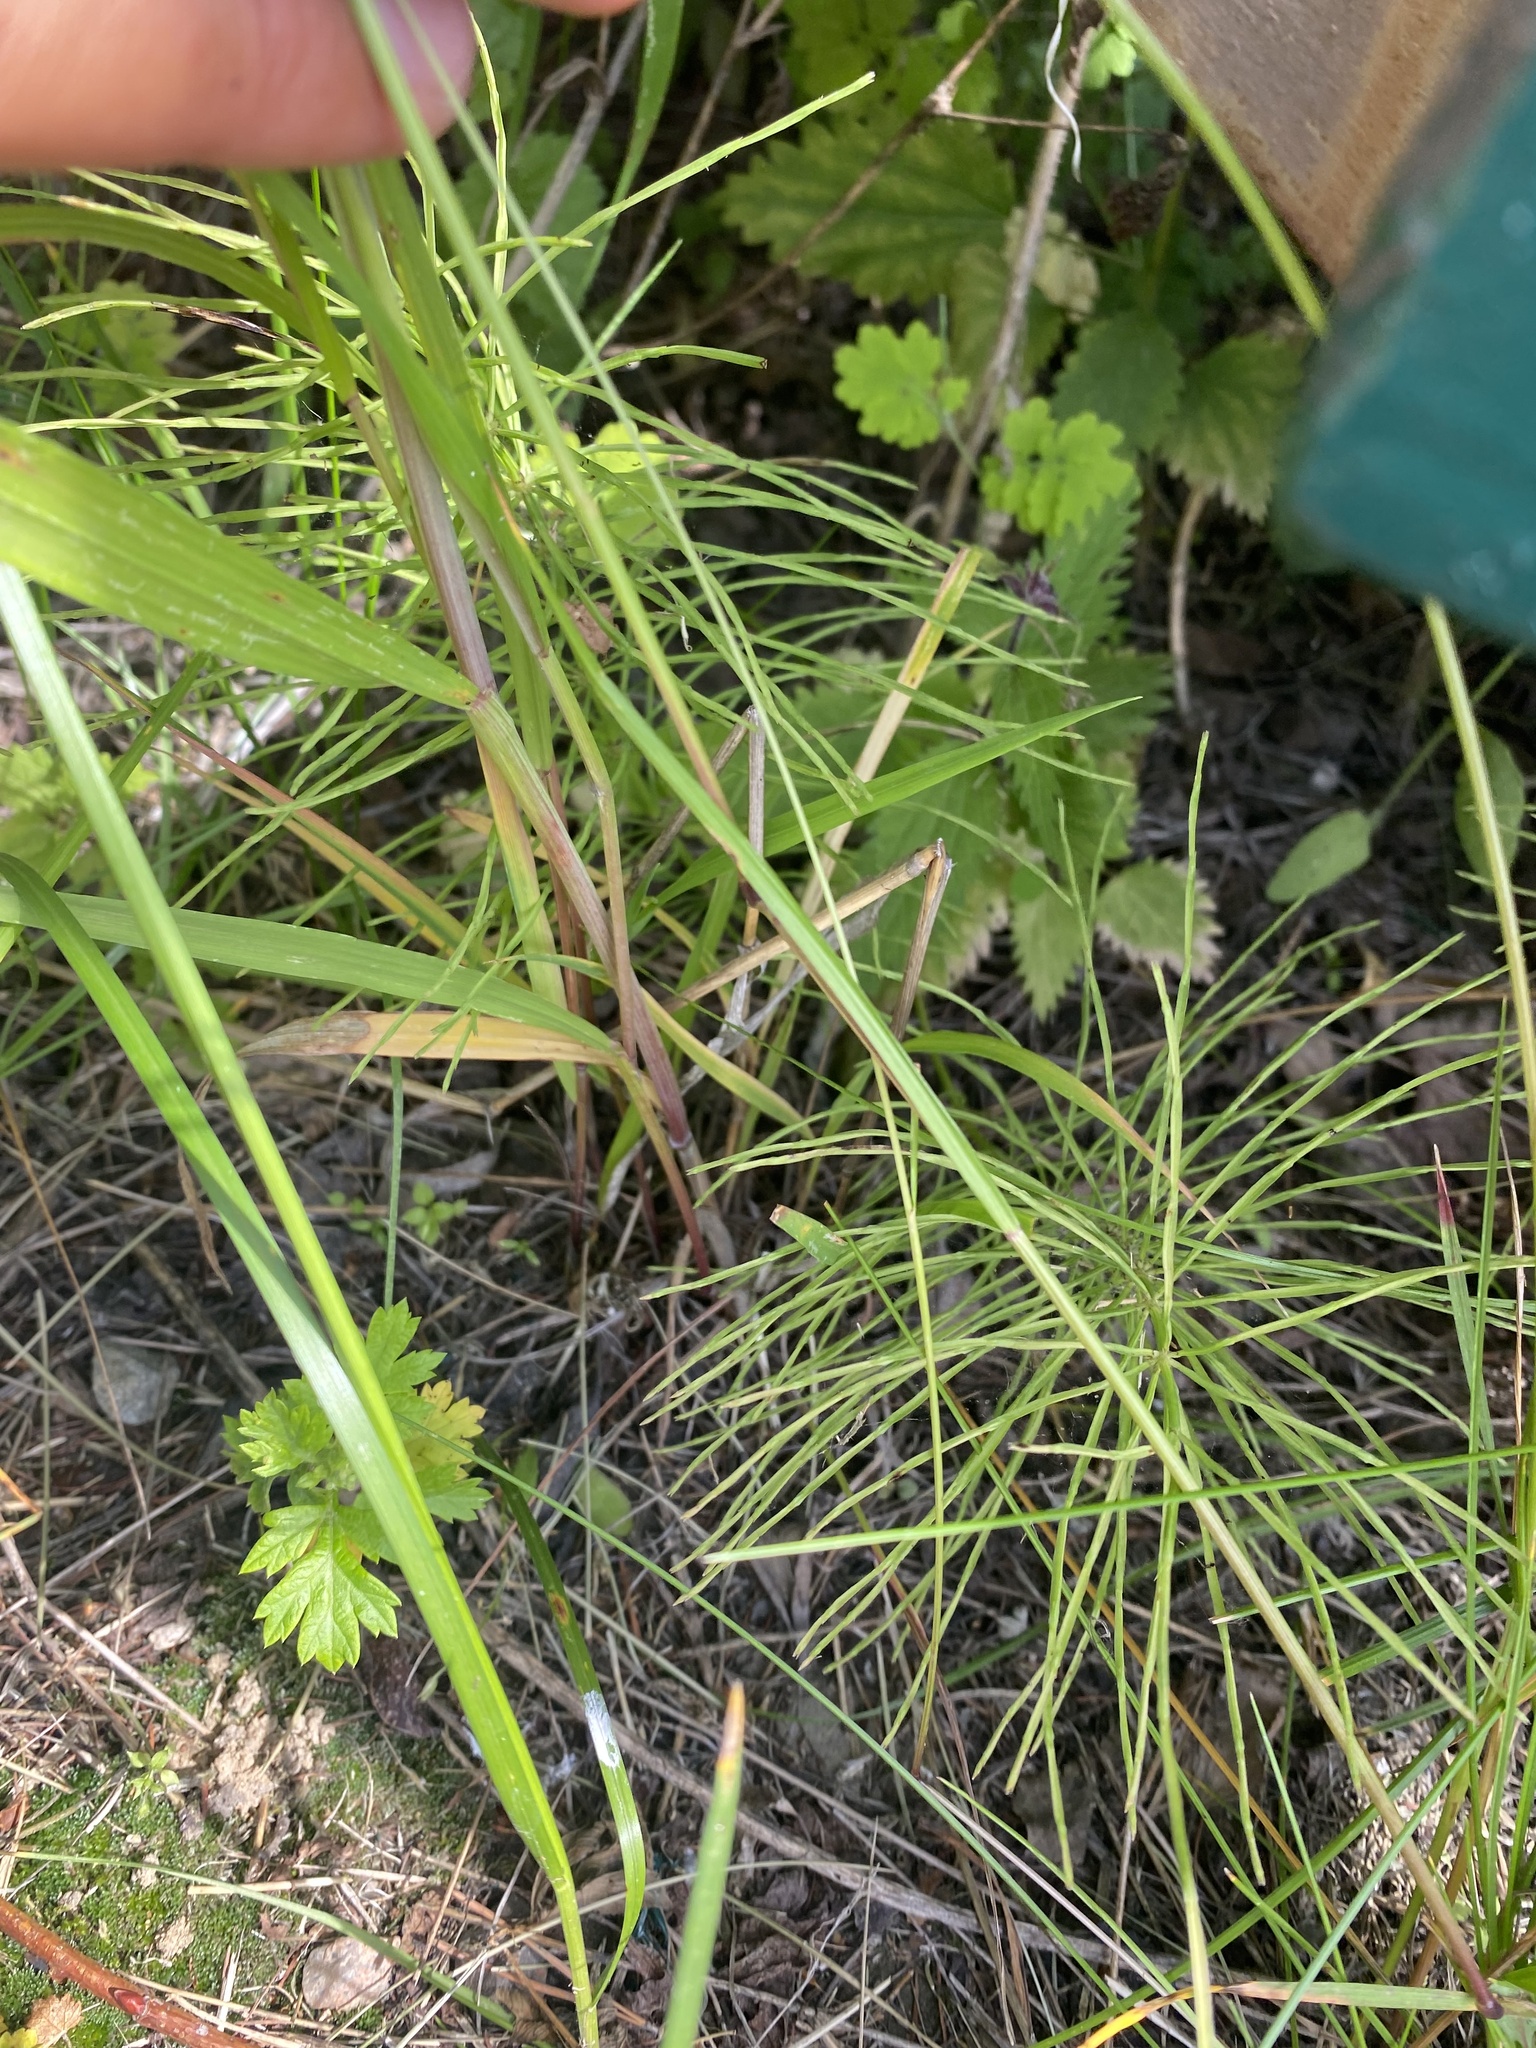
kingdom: Plantae
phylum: Tracheophyta
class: Polypodiopsida
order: Equisetales
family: Equisetaceae
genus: Equisetum
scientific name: Equisetum arvense
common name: Field horsetail
